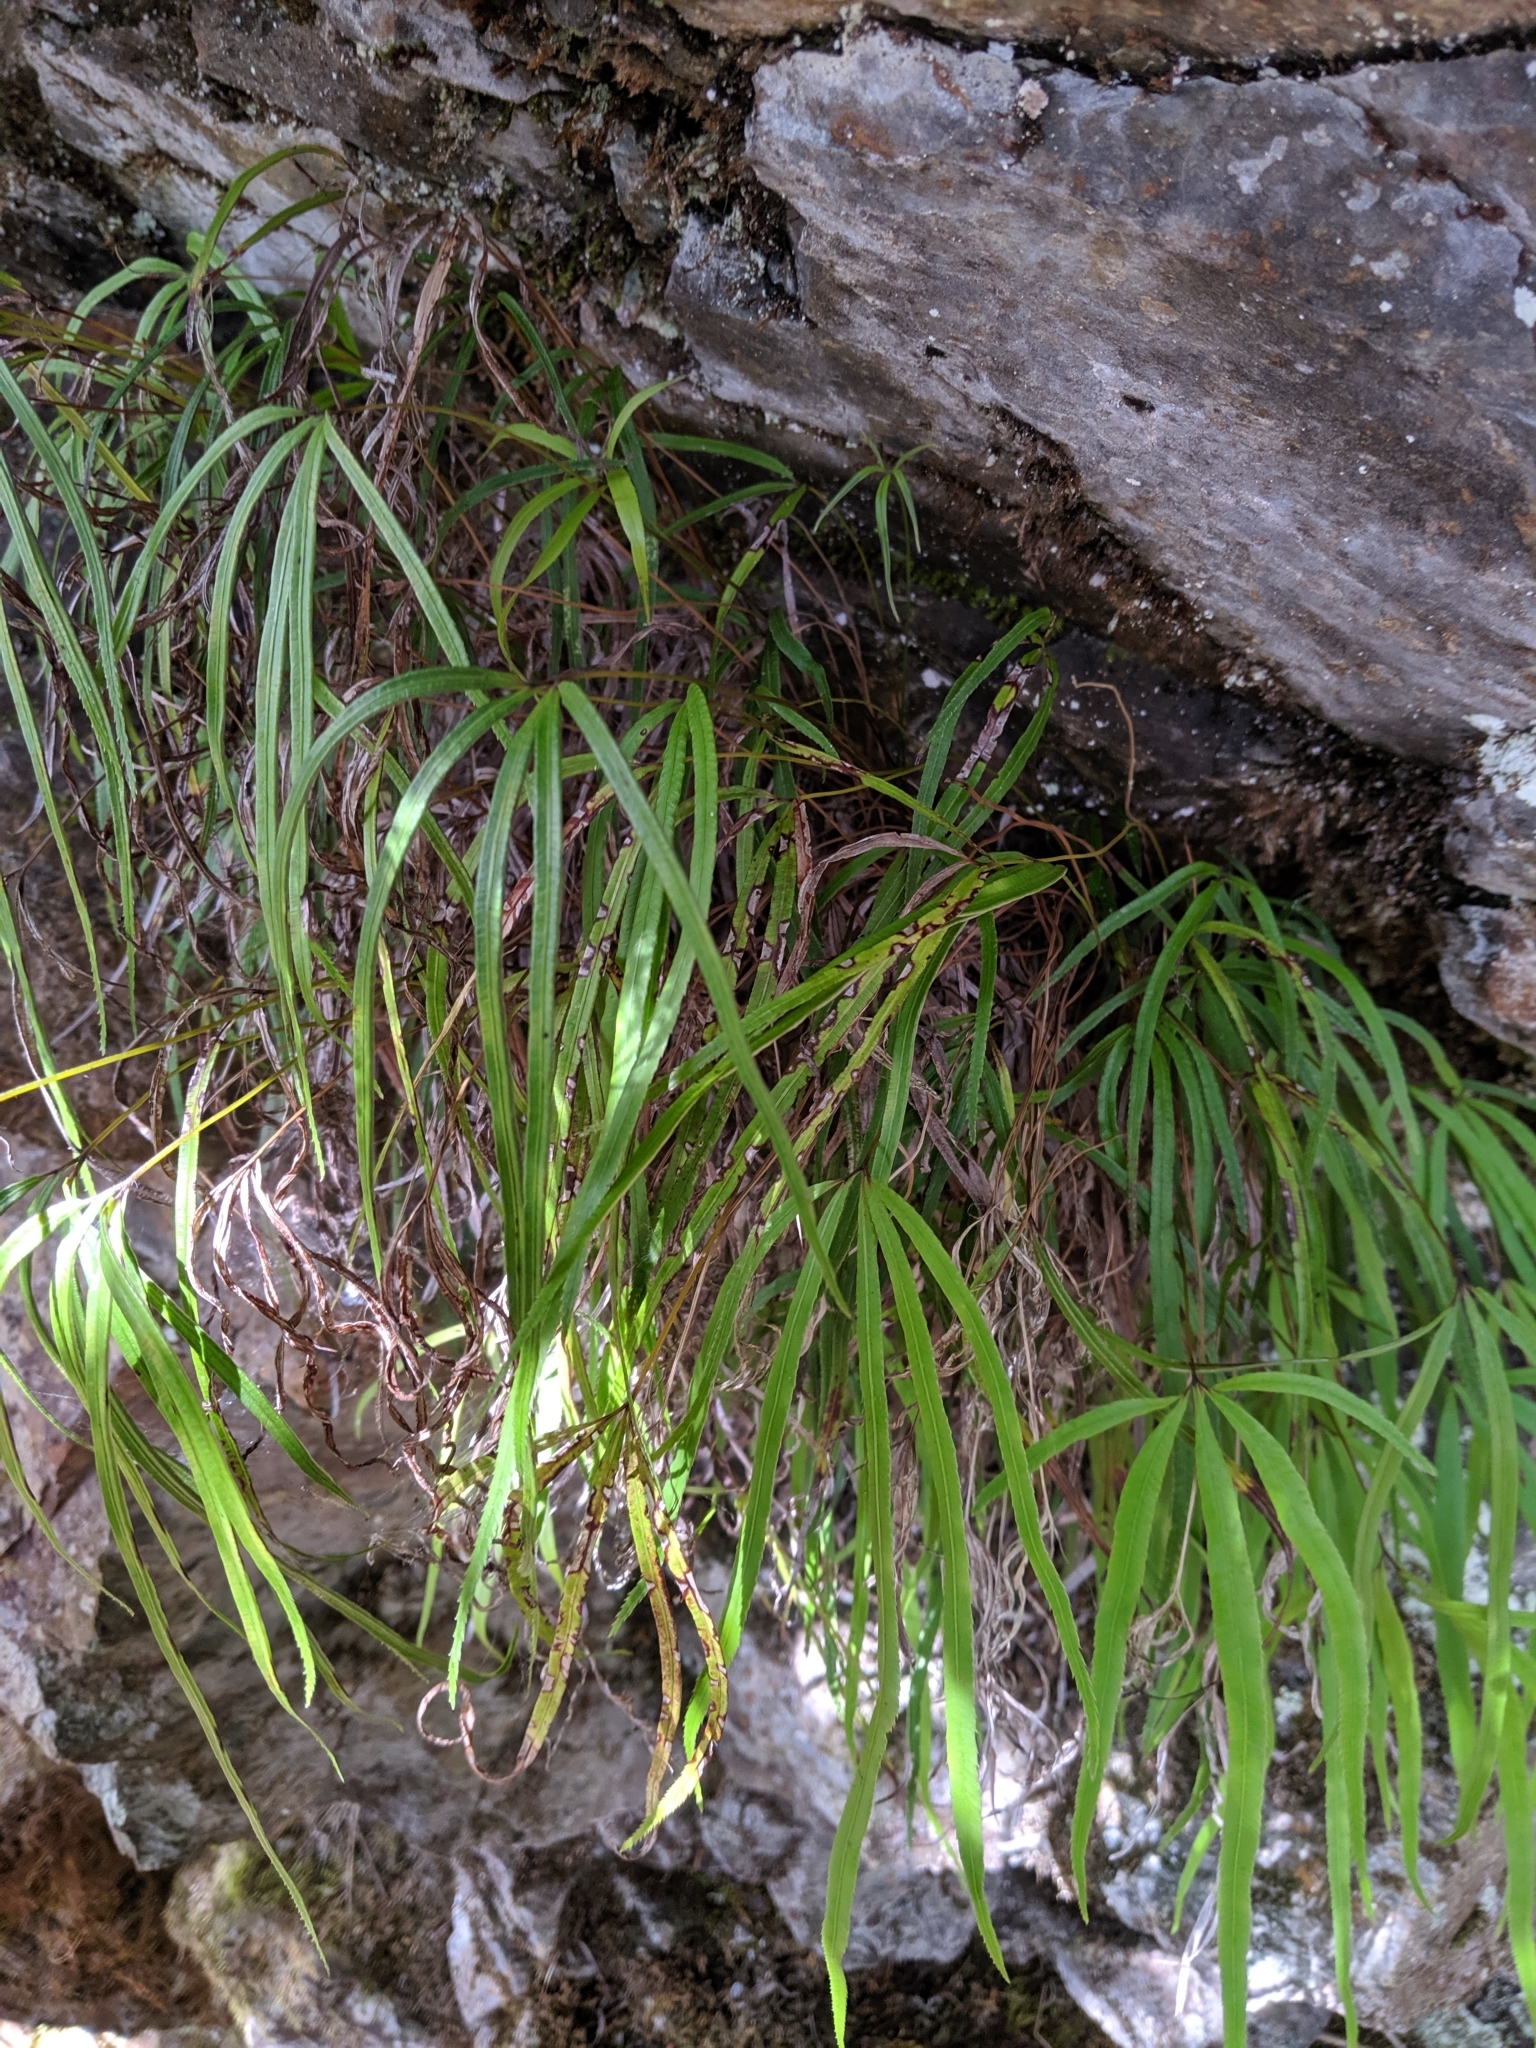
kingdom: Plantae
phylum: Tracheophyta
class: Polypodiopsida
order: Polypodiales
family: Pteridaceae
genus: Pteris
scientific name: Pteris dactylina
